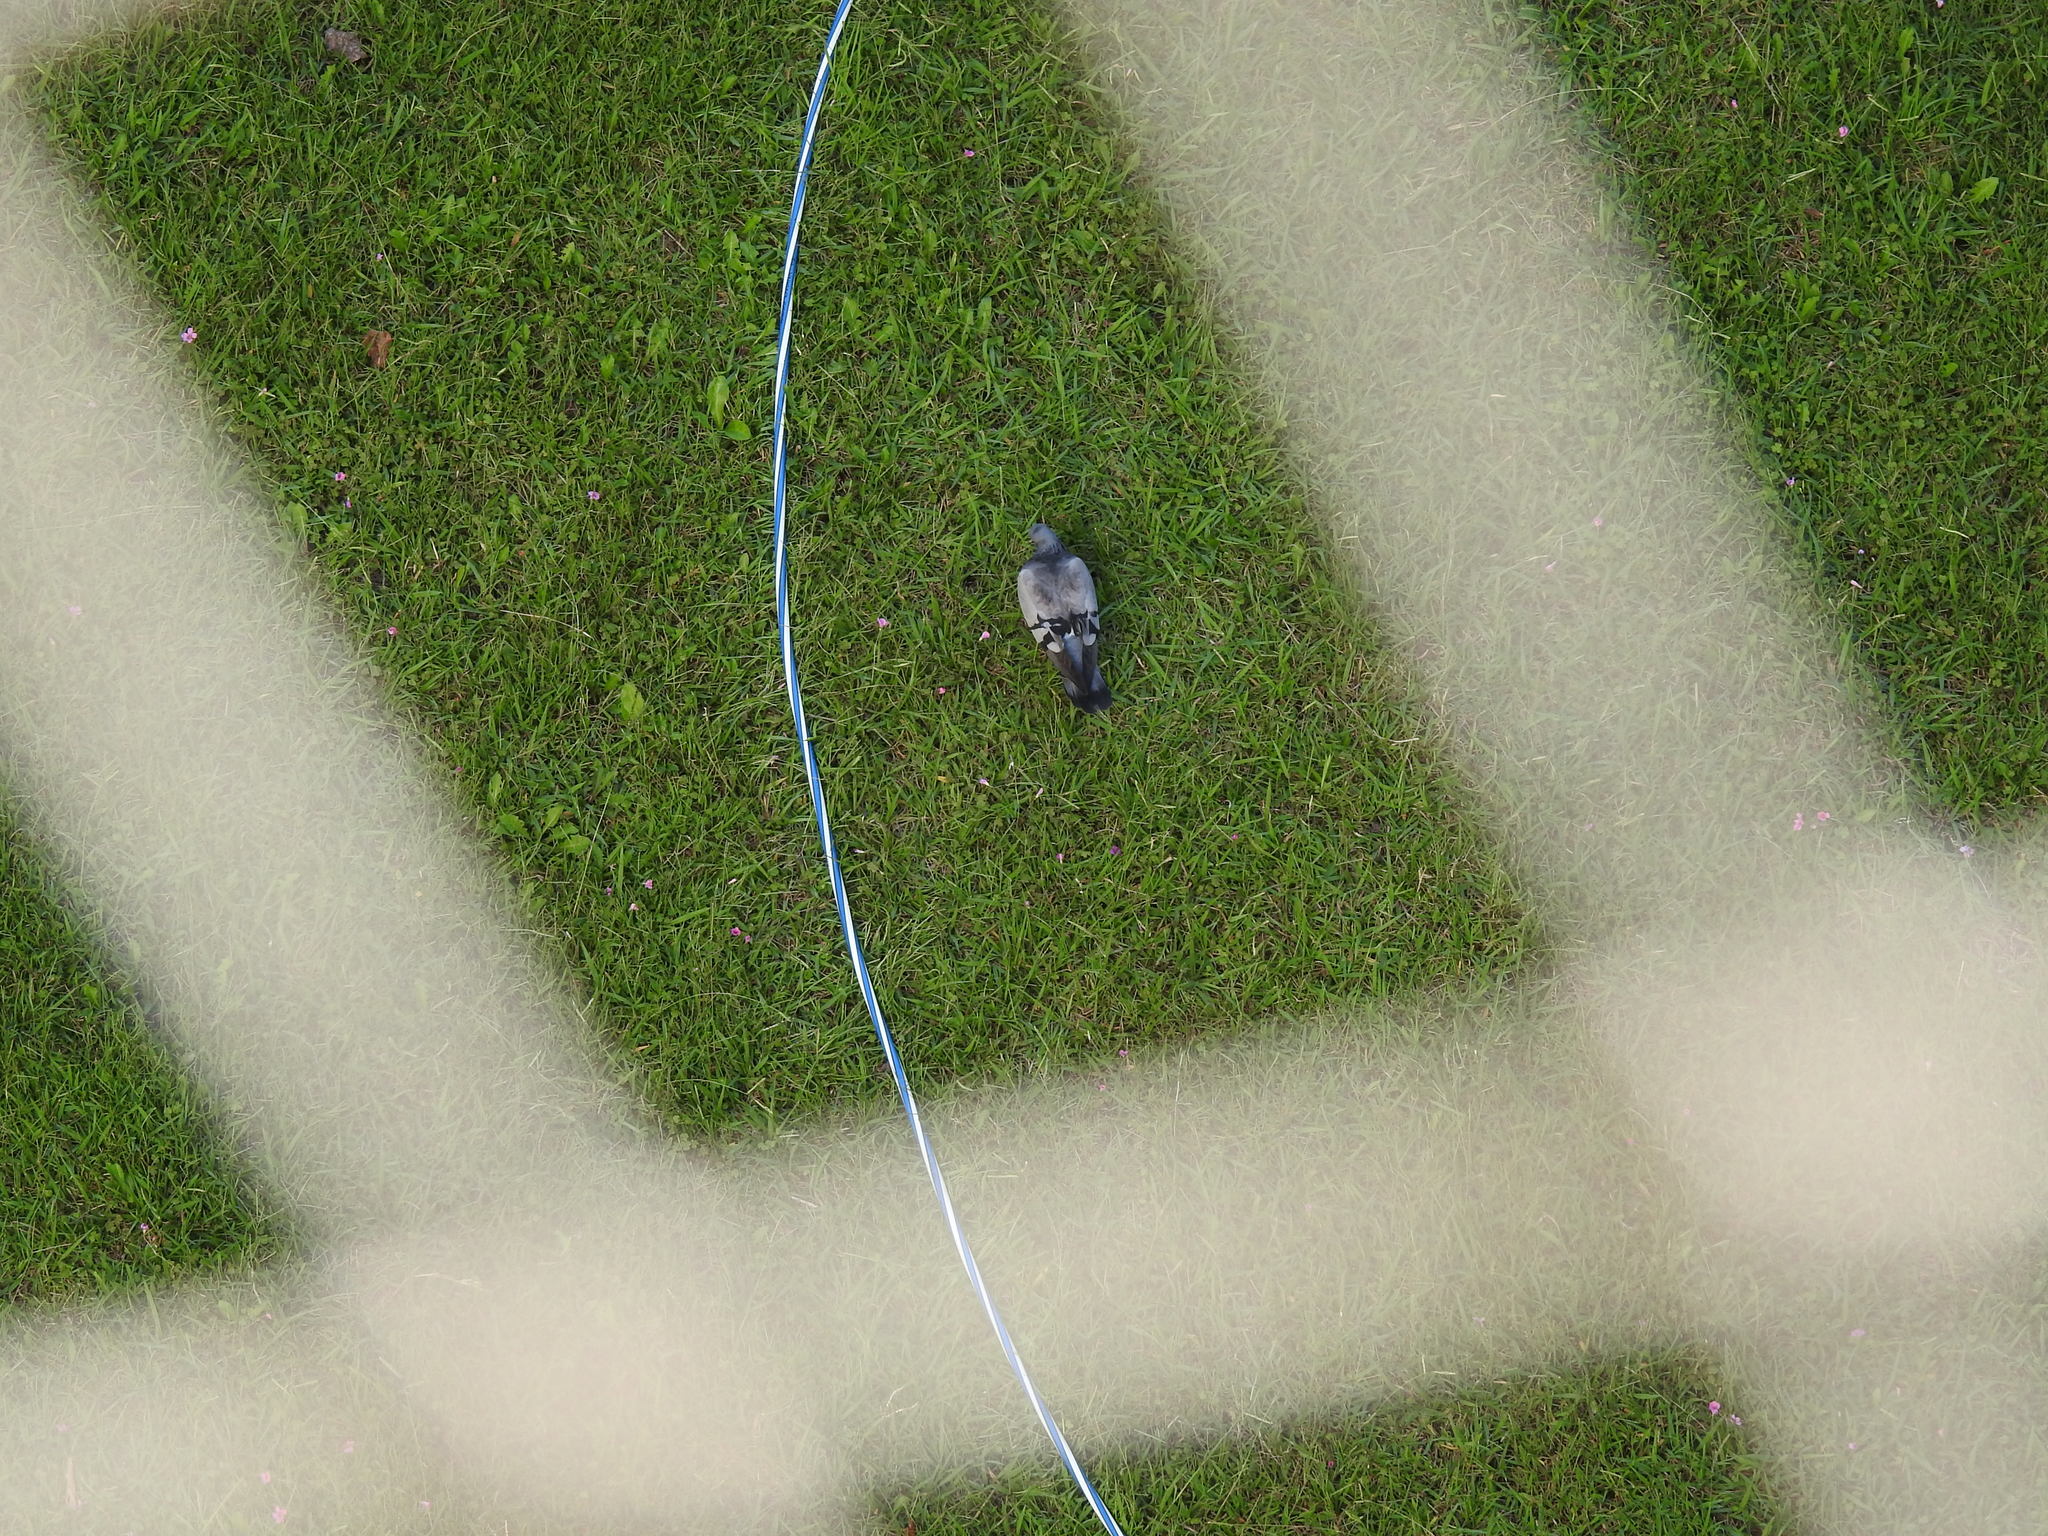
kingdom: Animalia
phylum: Chordata
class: Aves
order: Columbiformes
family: Columbidae
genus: Columba
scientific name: Columba livia
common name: Rock pigeon
